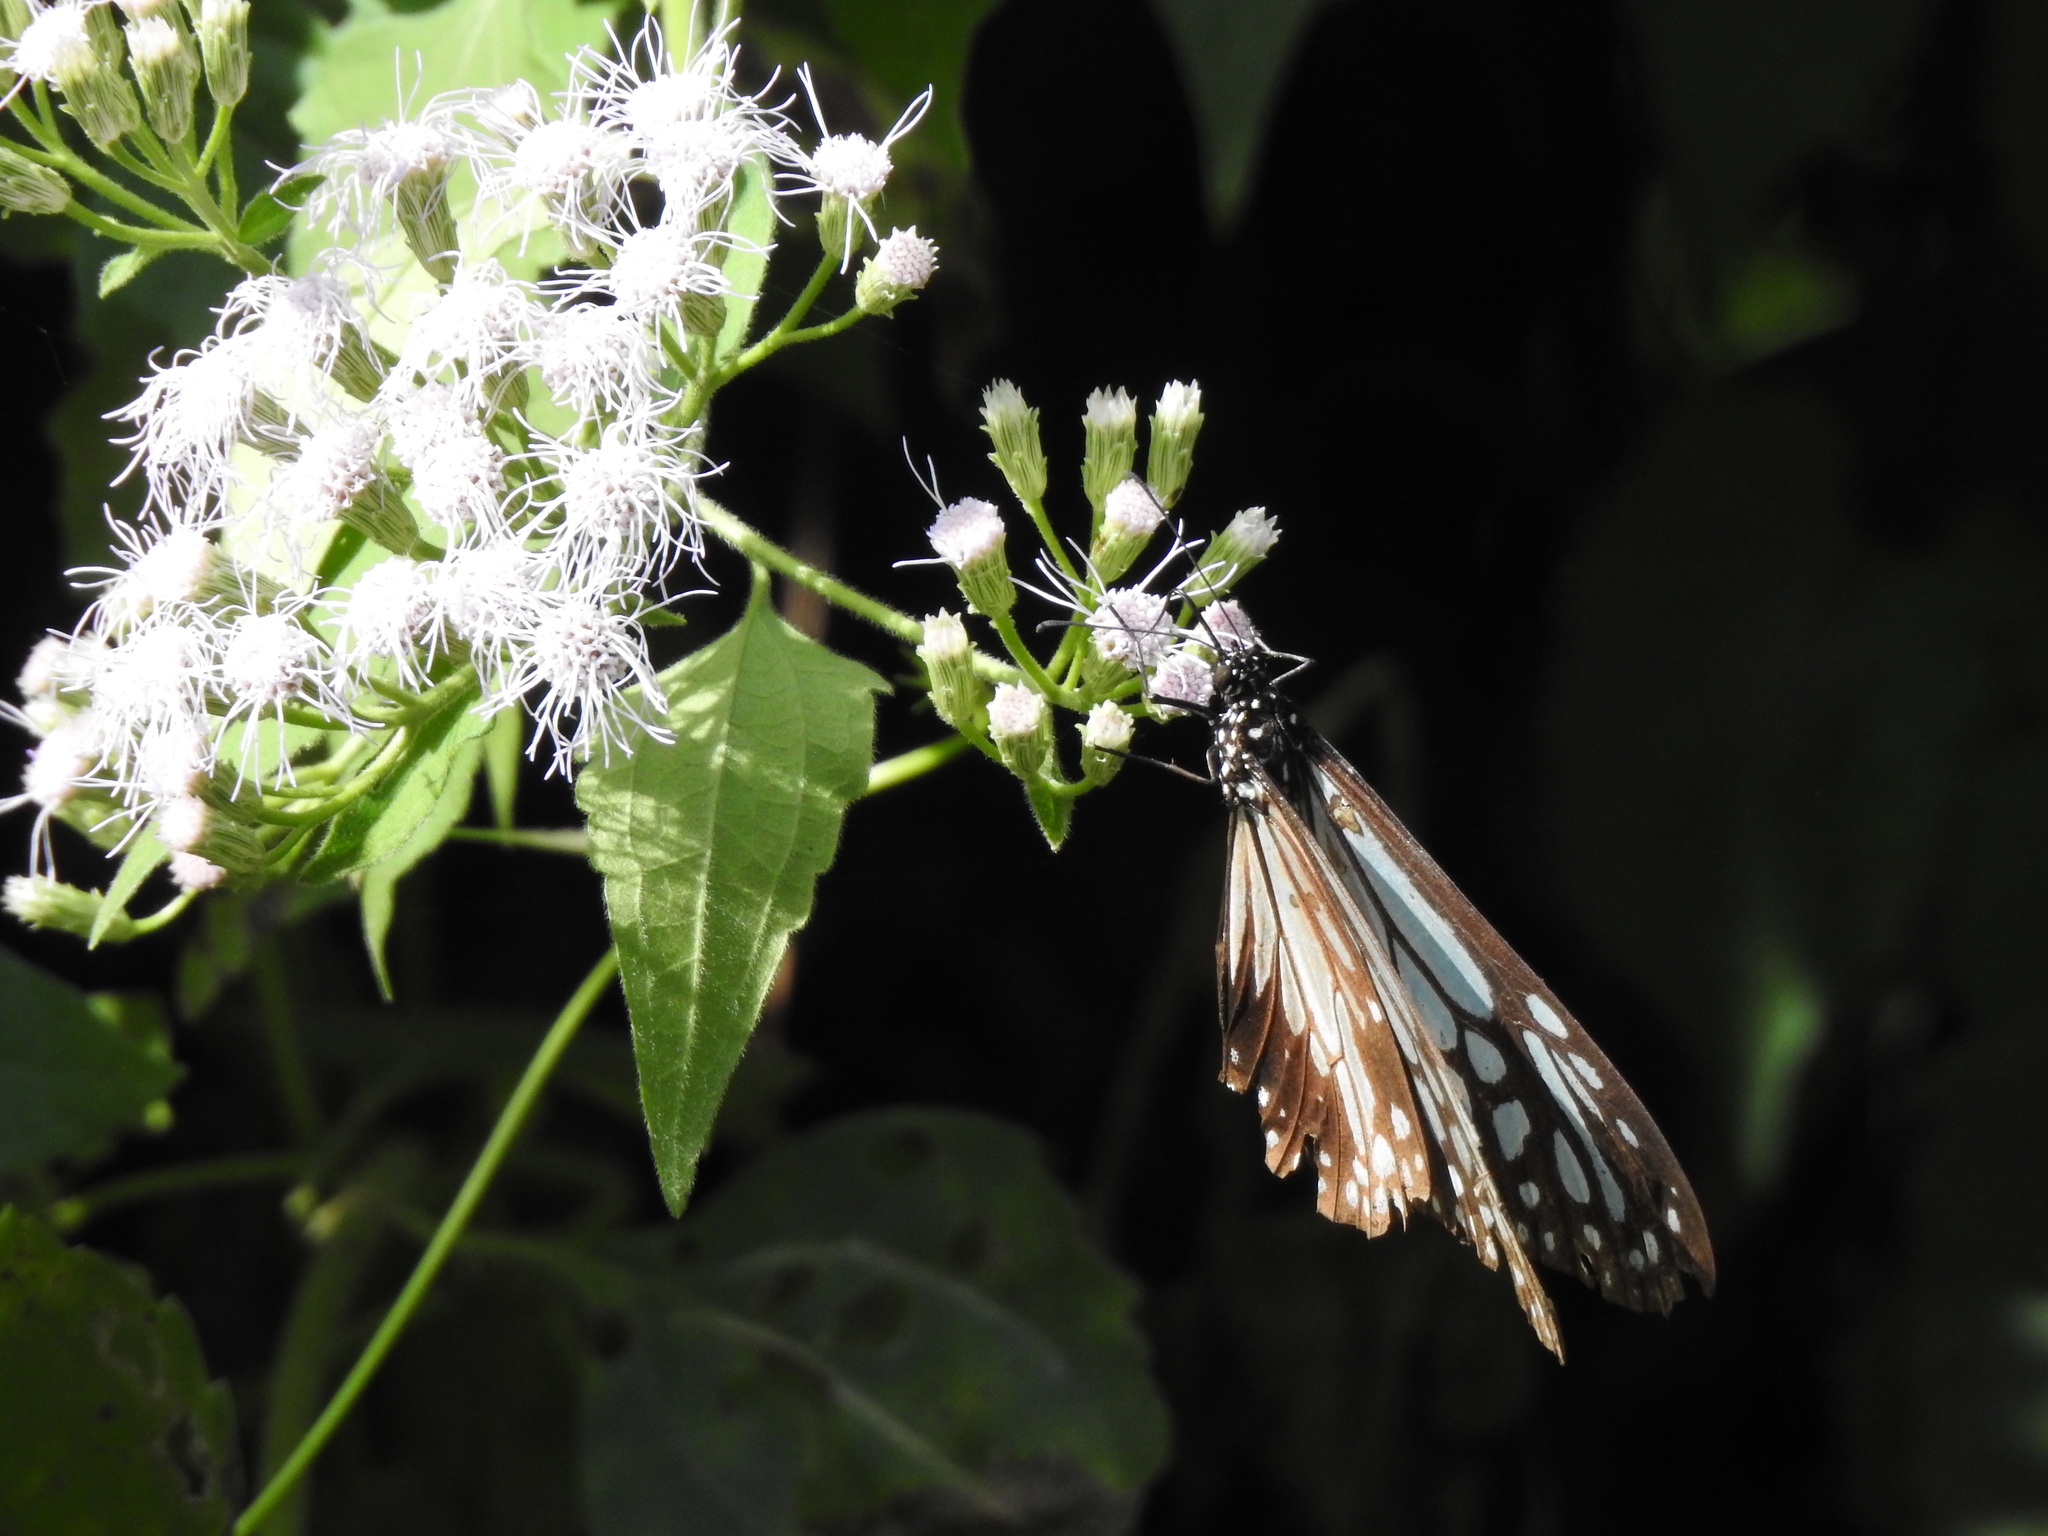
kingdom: Animalia
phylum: Arthropoda
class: Insecta
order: Lepidoptera
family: Nymphalidae
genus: Parantica
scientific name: Parantica sita
